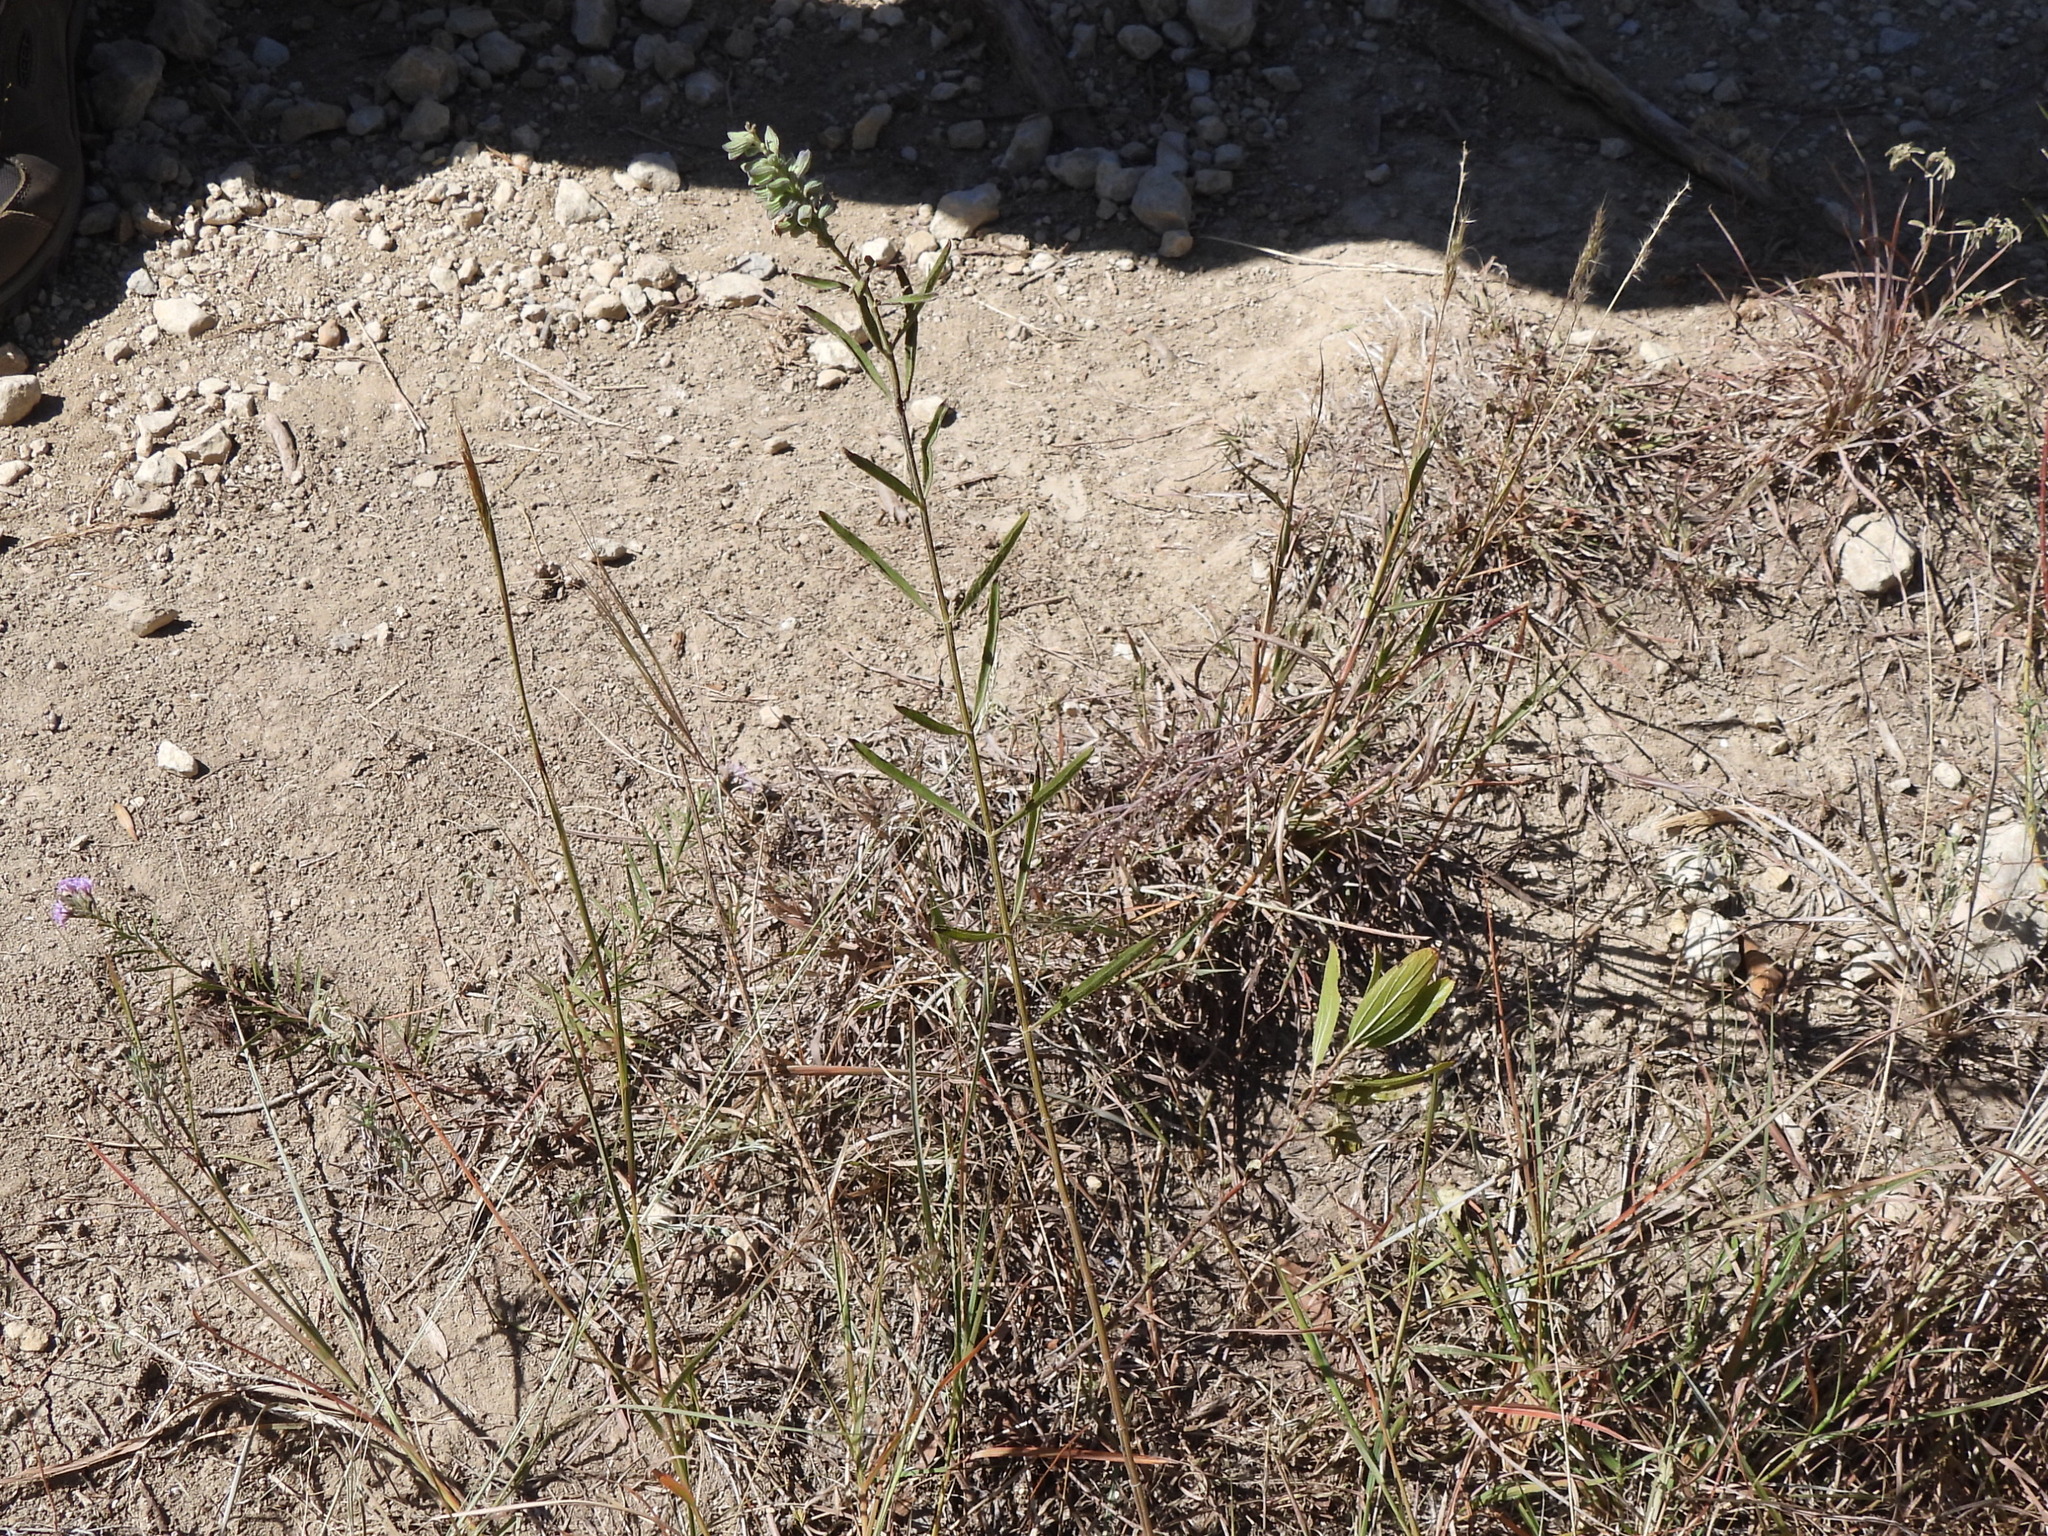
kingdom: Plantae
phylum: Tracheophyta
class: Magnoliopsida
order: Lamiales
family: Lamiaceae
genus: Salvia
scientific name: Salvia azurea
